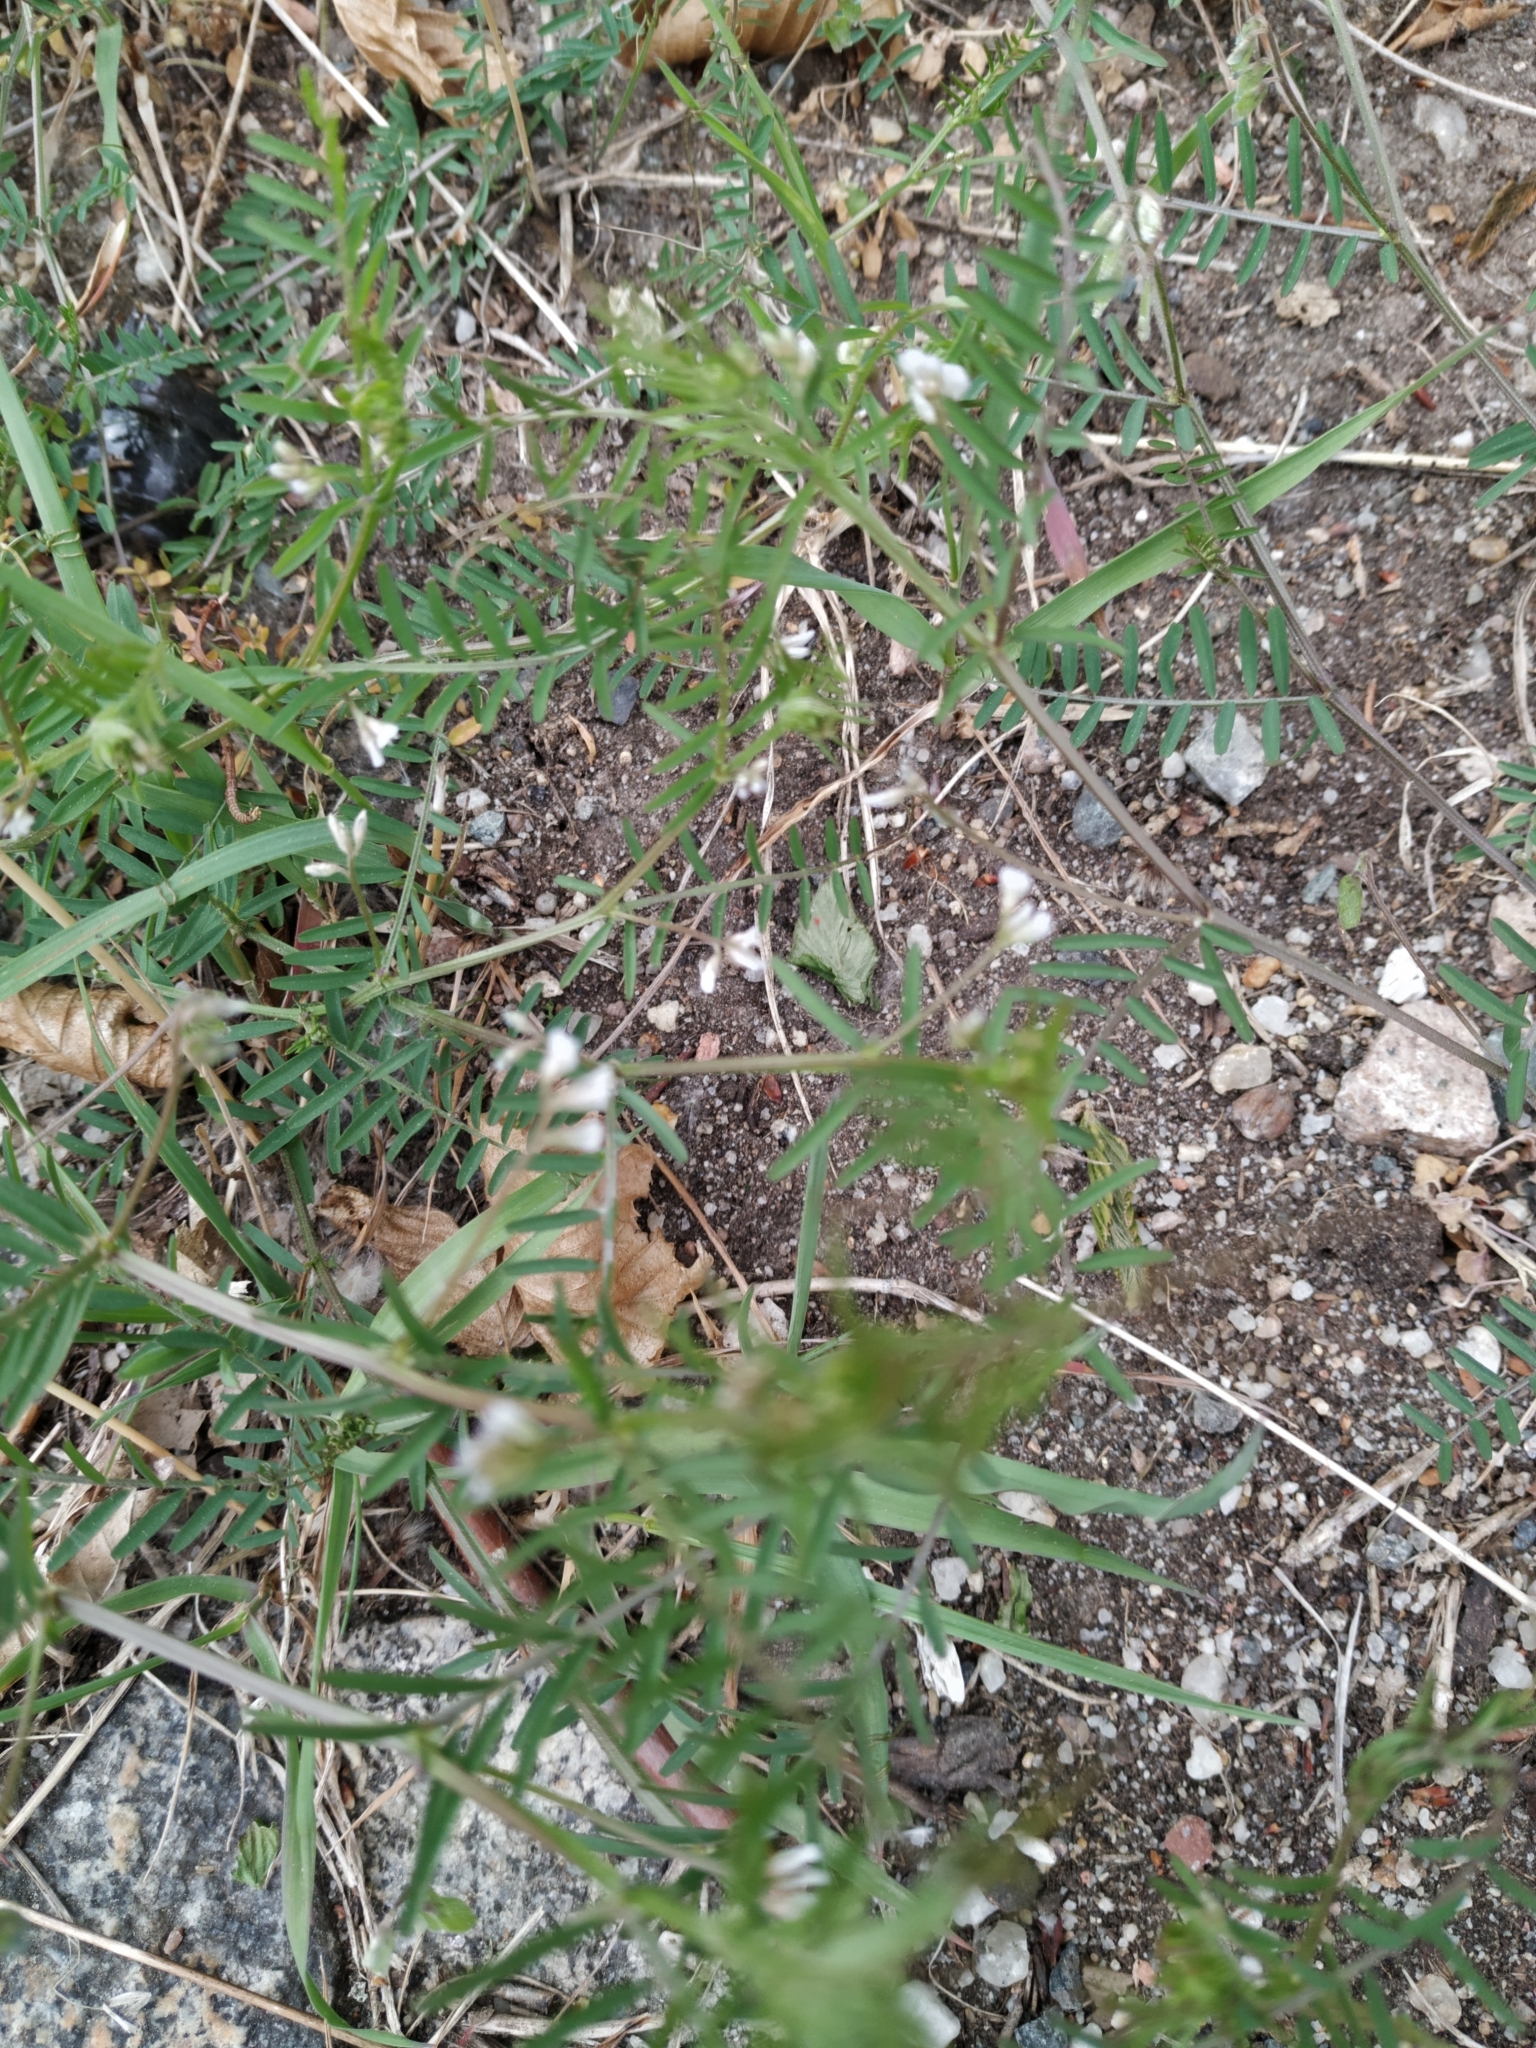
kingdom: Plantae
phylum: Tracheophyta
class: Magnoliopsida
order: Fabales
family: Fabaceae
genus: Vicia
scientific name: Vicia hirsuta
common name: Tiny vetch
